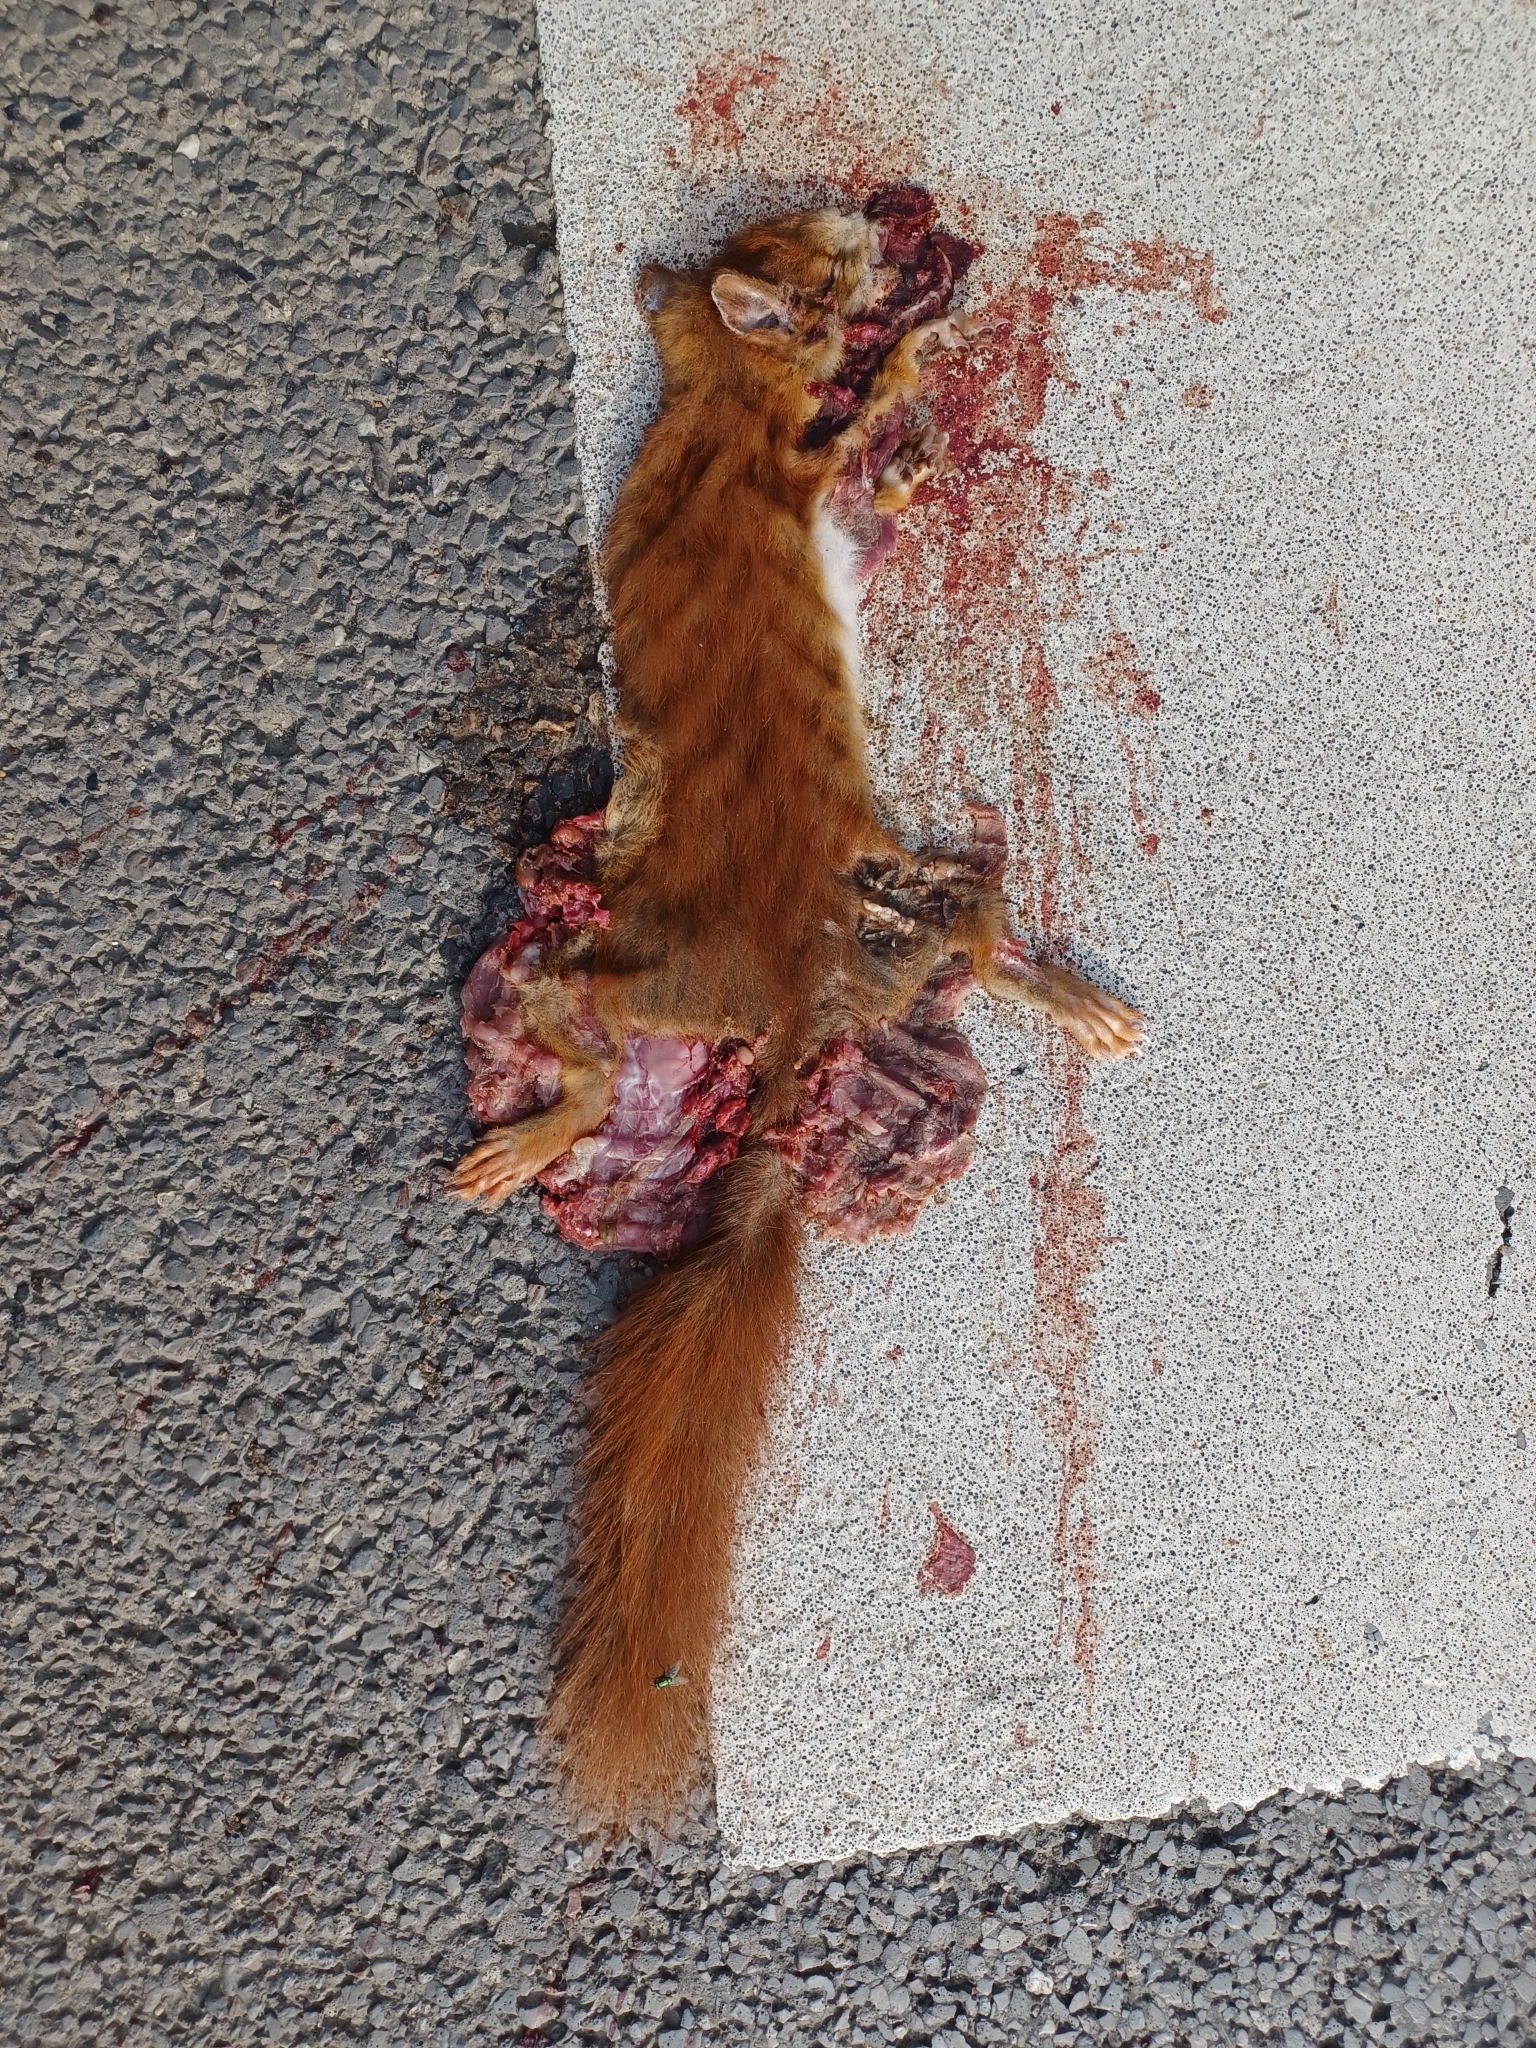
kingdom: Animalia
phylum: Chordata
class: Mammalia
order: Rodentia
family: Sciuridae
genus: Sciurus
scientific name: Sciurus vulgaris
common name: Eurasian red squirrel
